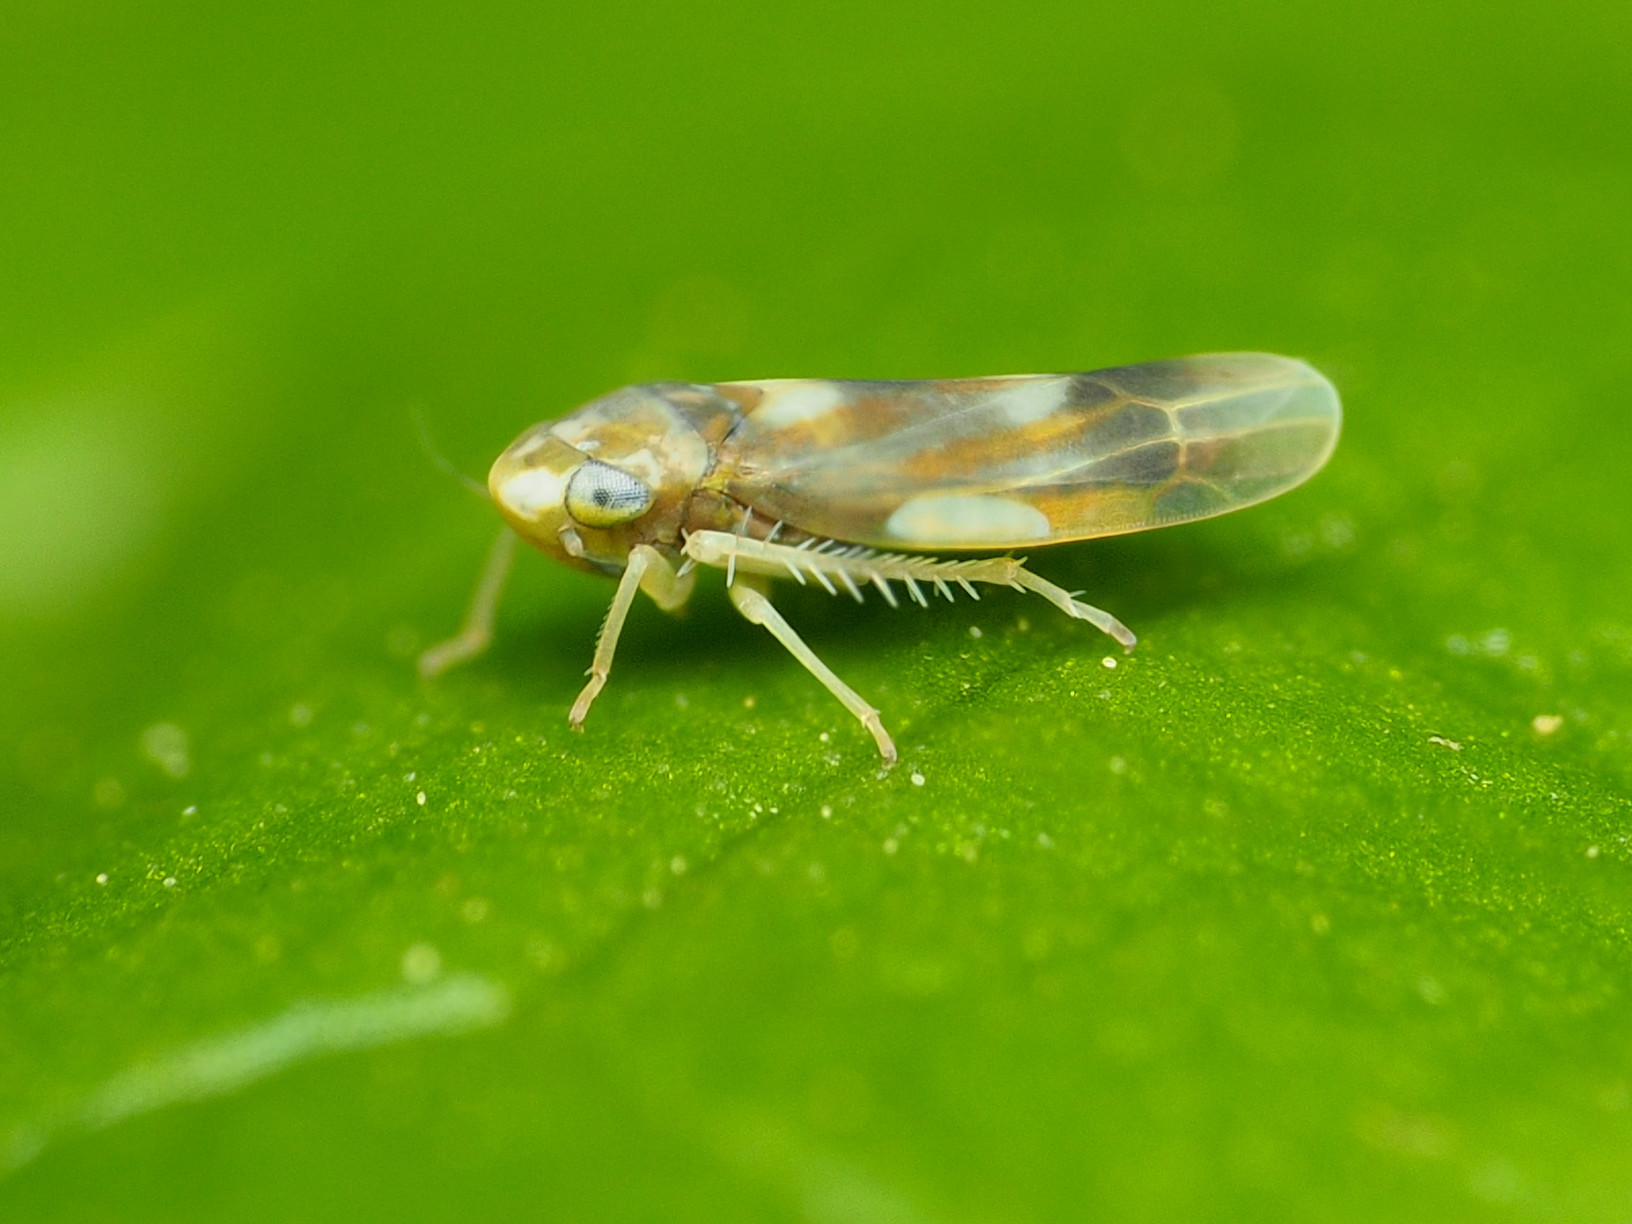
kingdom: Animalia
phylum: Arthropoda
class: Insecta
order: Hemiptera
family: Cicadellidae
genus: Erythridula
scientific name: Erythridula fumida
